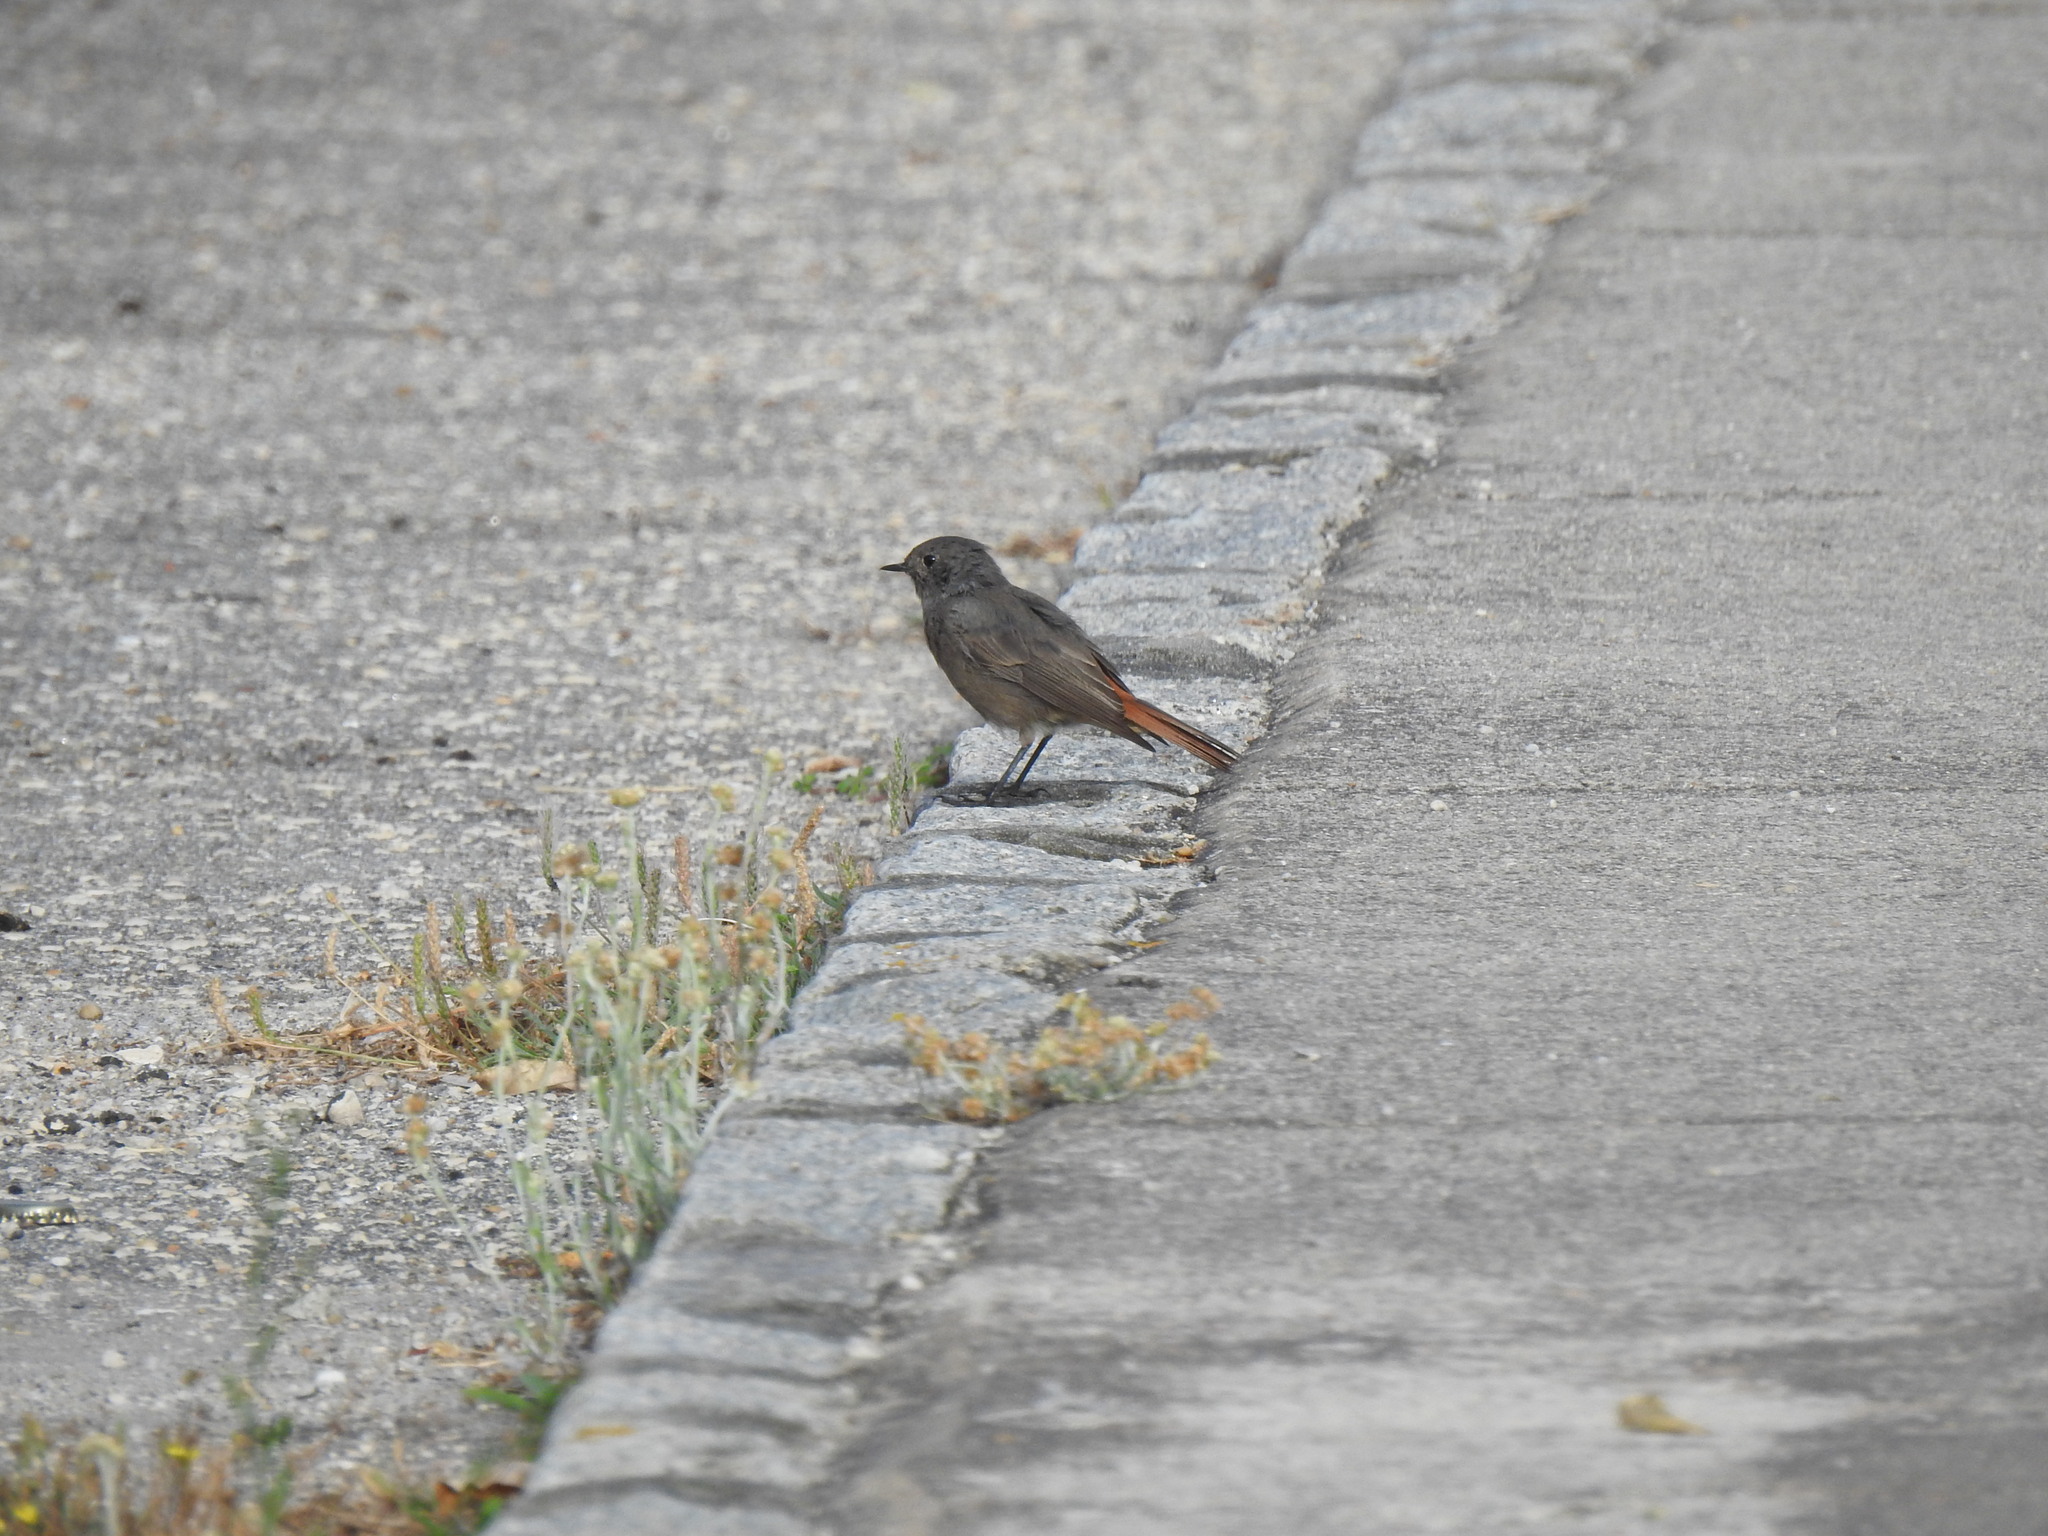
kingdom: Animalia
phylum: Chordata
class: Aves
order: Passeriformes
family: Muscicapidae
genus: Phoenicurus
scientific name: Phoenicurus ochruros
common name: Black redstart
